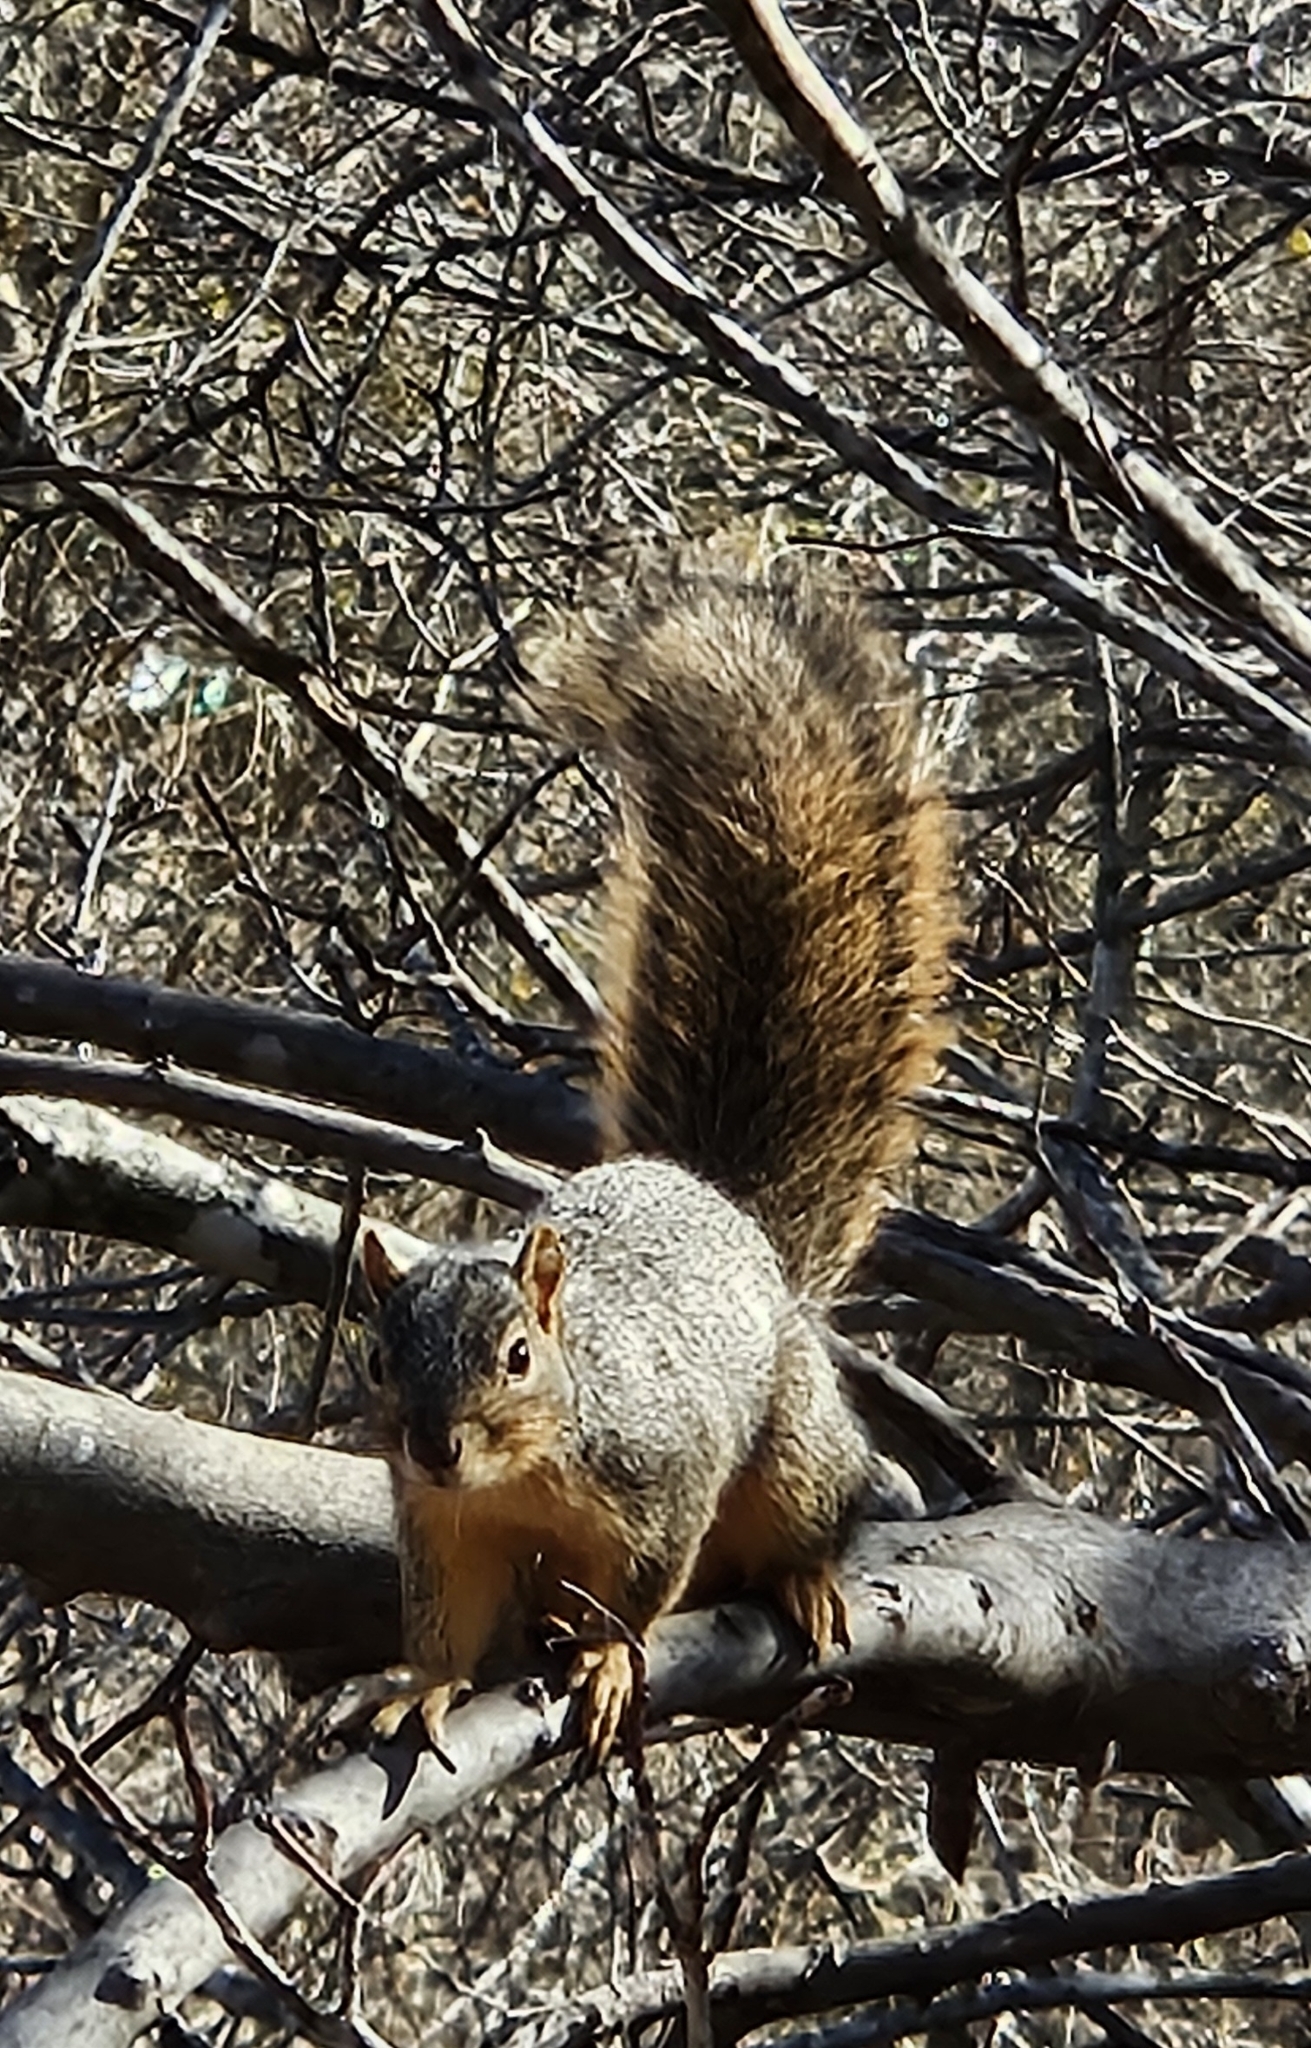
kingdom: Animalia
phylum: Chordata
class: Mammalia
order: Rodentia
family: Sciuridae
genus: Sciurus
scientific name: Sciurus niger
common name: Fox squirrel
